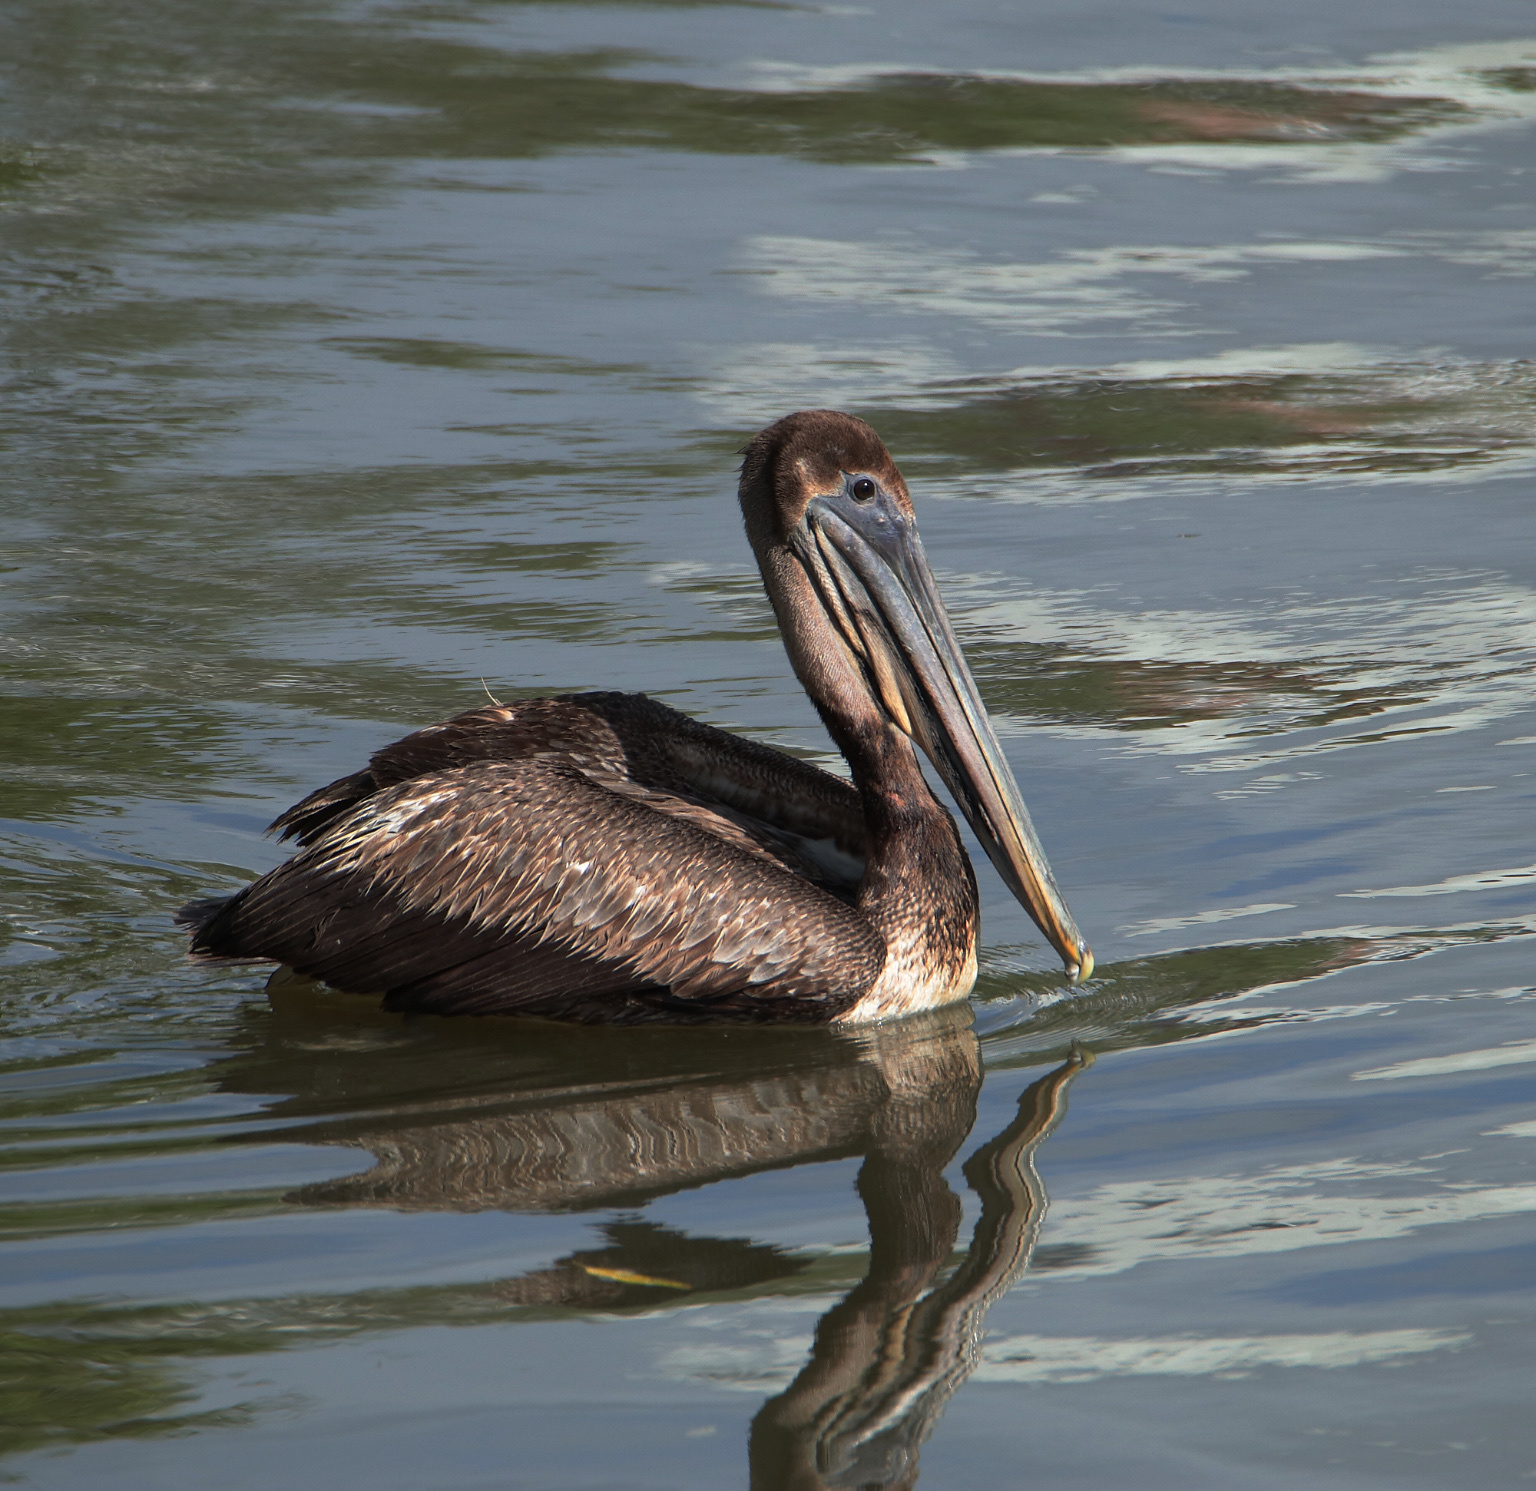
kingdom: Animalia
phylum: Chordata
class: Aves
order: Pelecaniformes
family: Pelecanidae
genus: Pelecanus
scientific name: Pelecanus occidentalis
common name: Brown pelican
